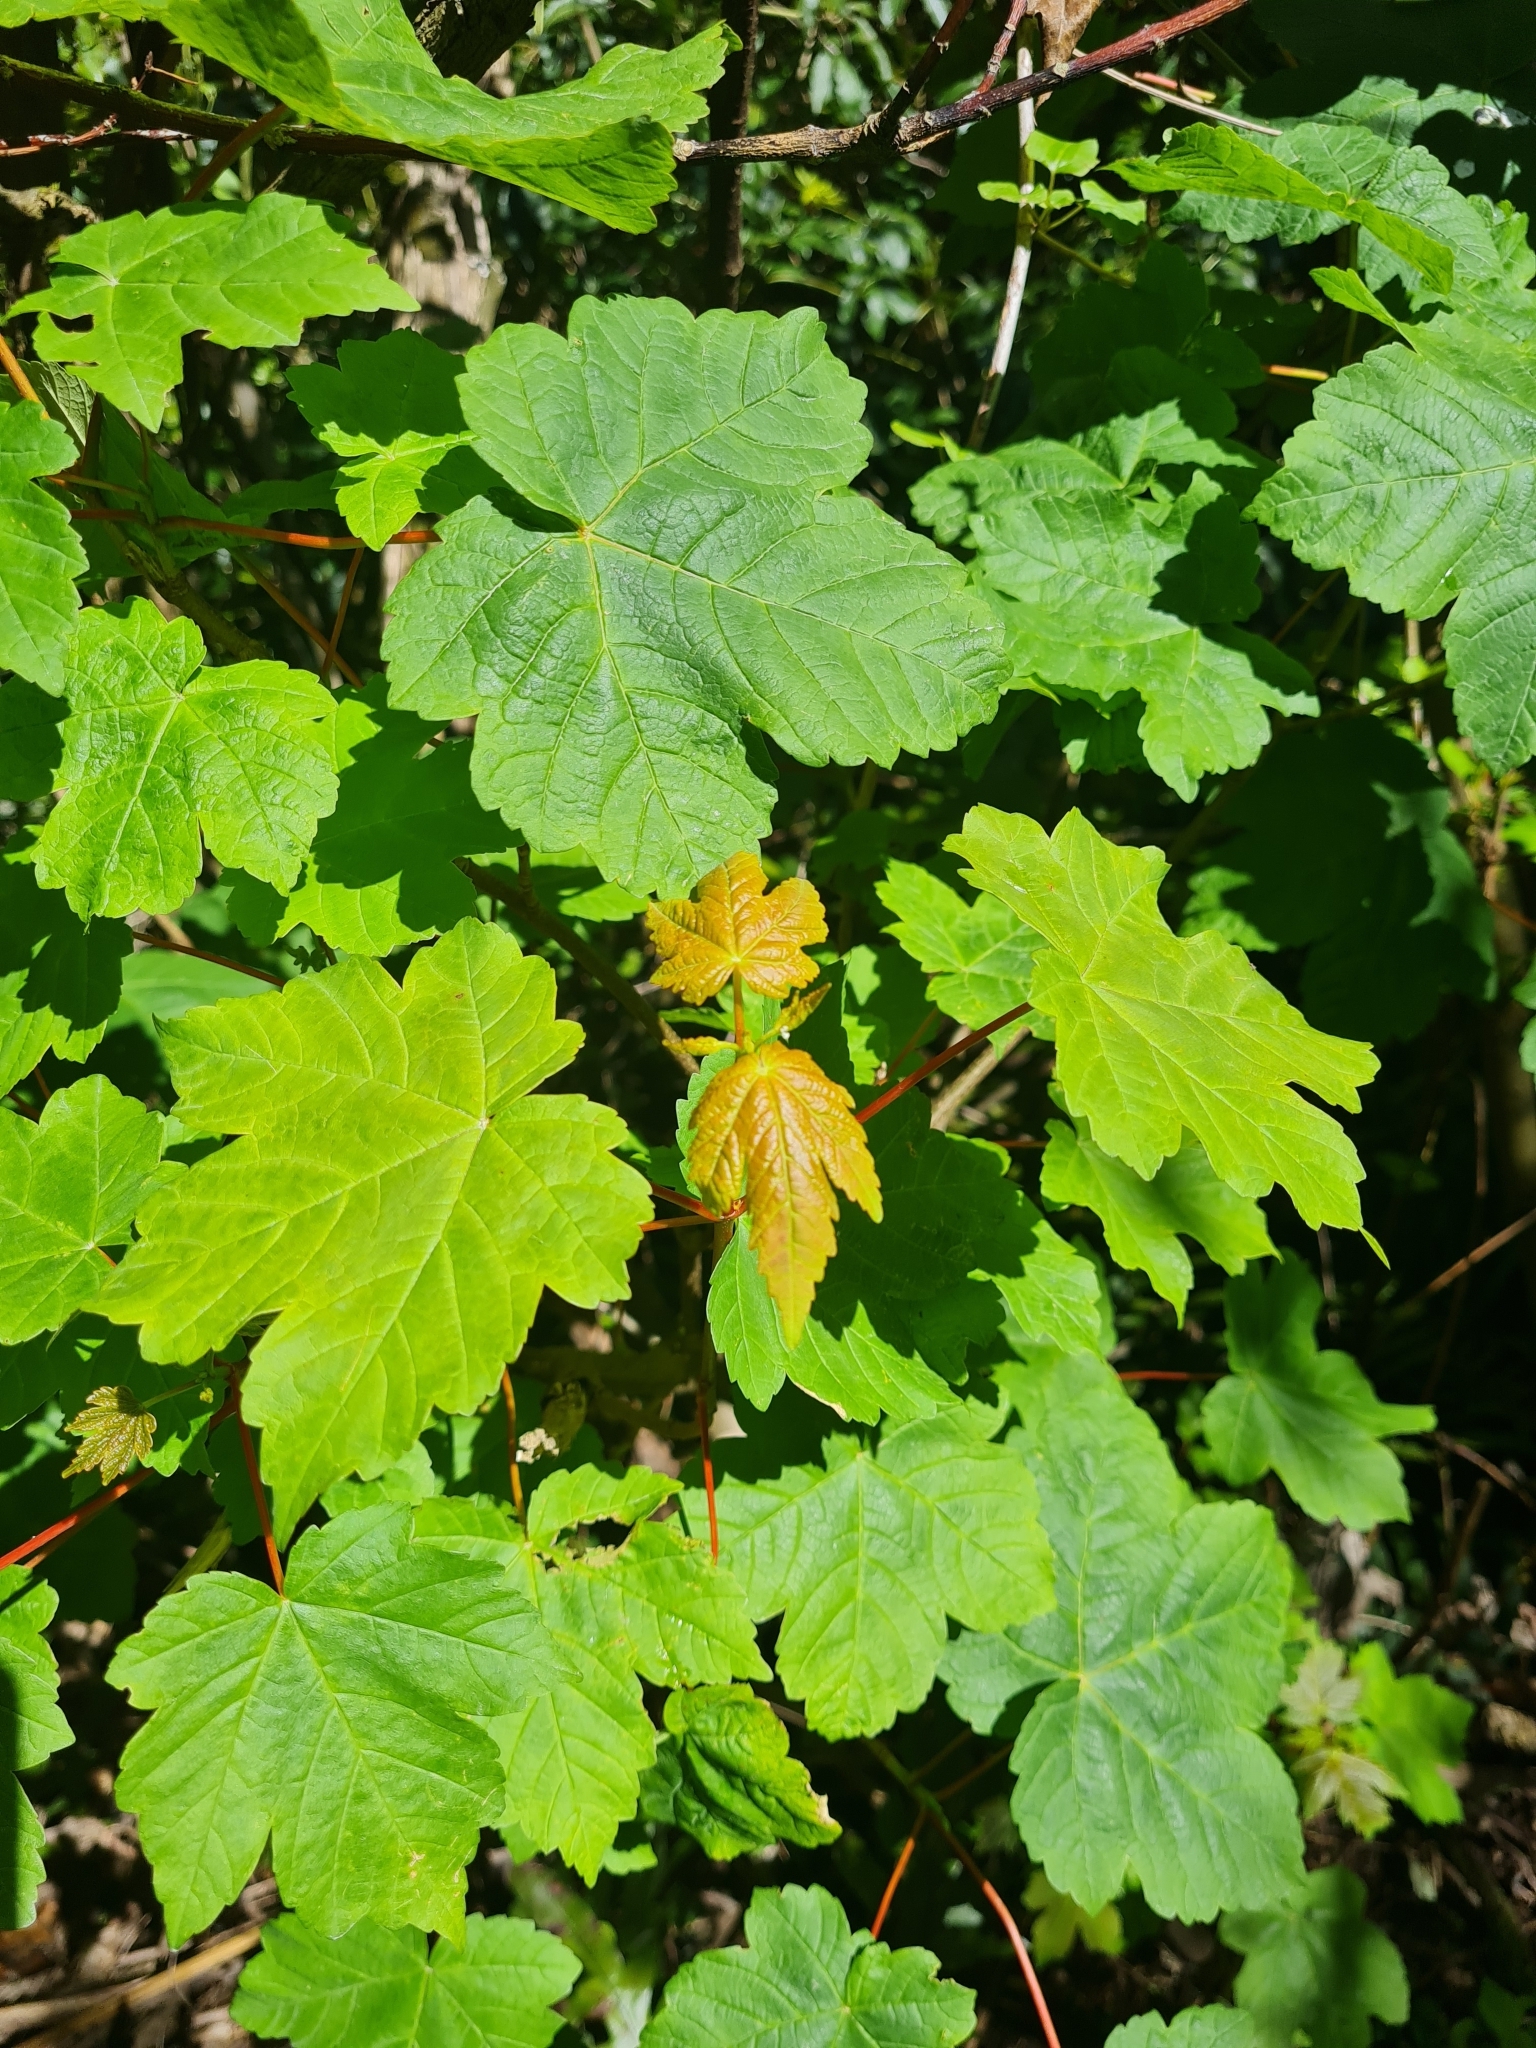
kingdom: Plantae
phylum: Tracheophyta
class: Magnoliopsida
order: Sapindales
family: Sapindaceae
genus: Acer
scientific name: Acer pseudoplatanus
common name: Sycamore
